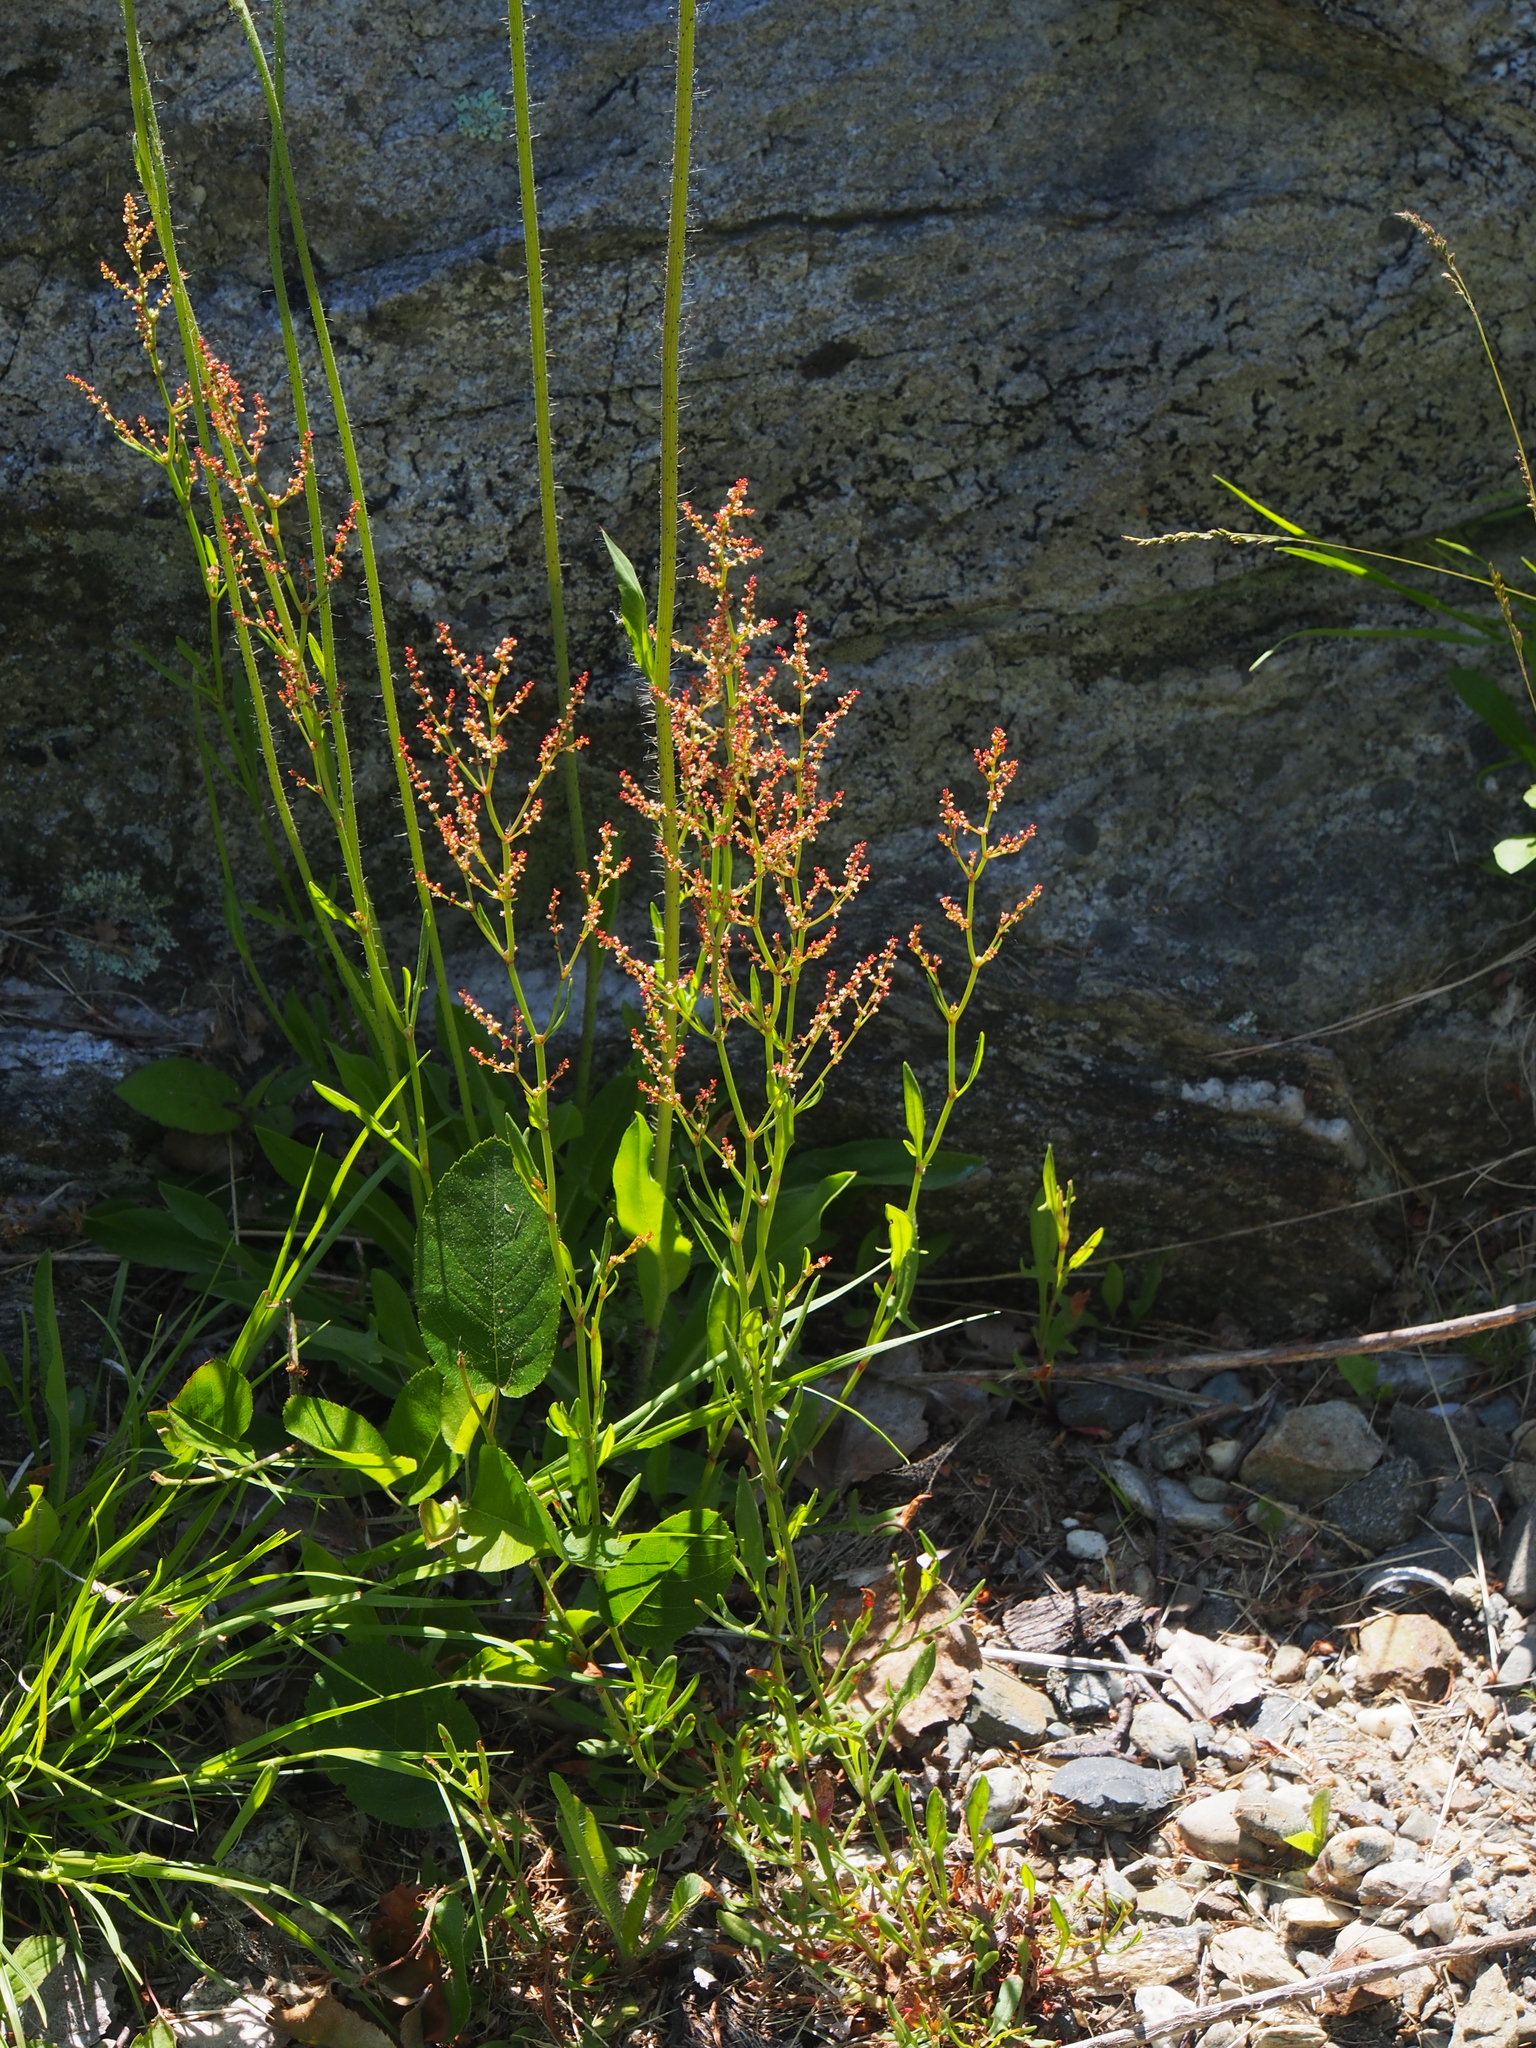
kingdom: Plantae
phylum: Tracheophyta
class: Magnoliopsida
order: Caryophyllales
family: Polygonaceae
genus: Rumex
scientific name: Rumex acetosella
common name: Common sheep sorrel
